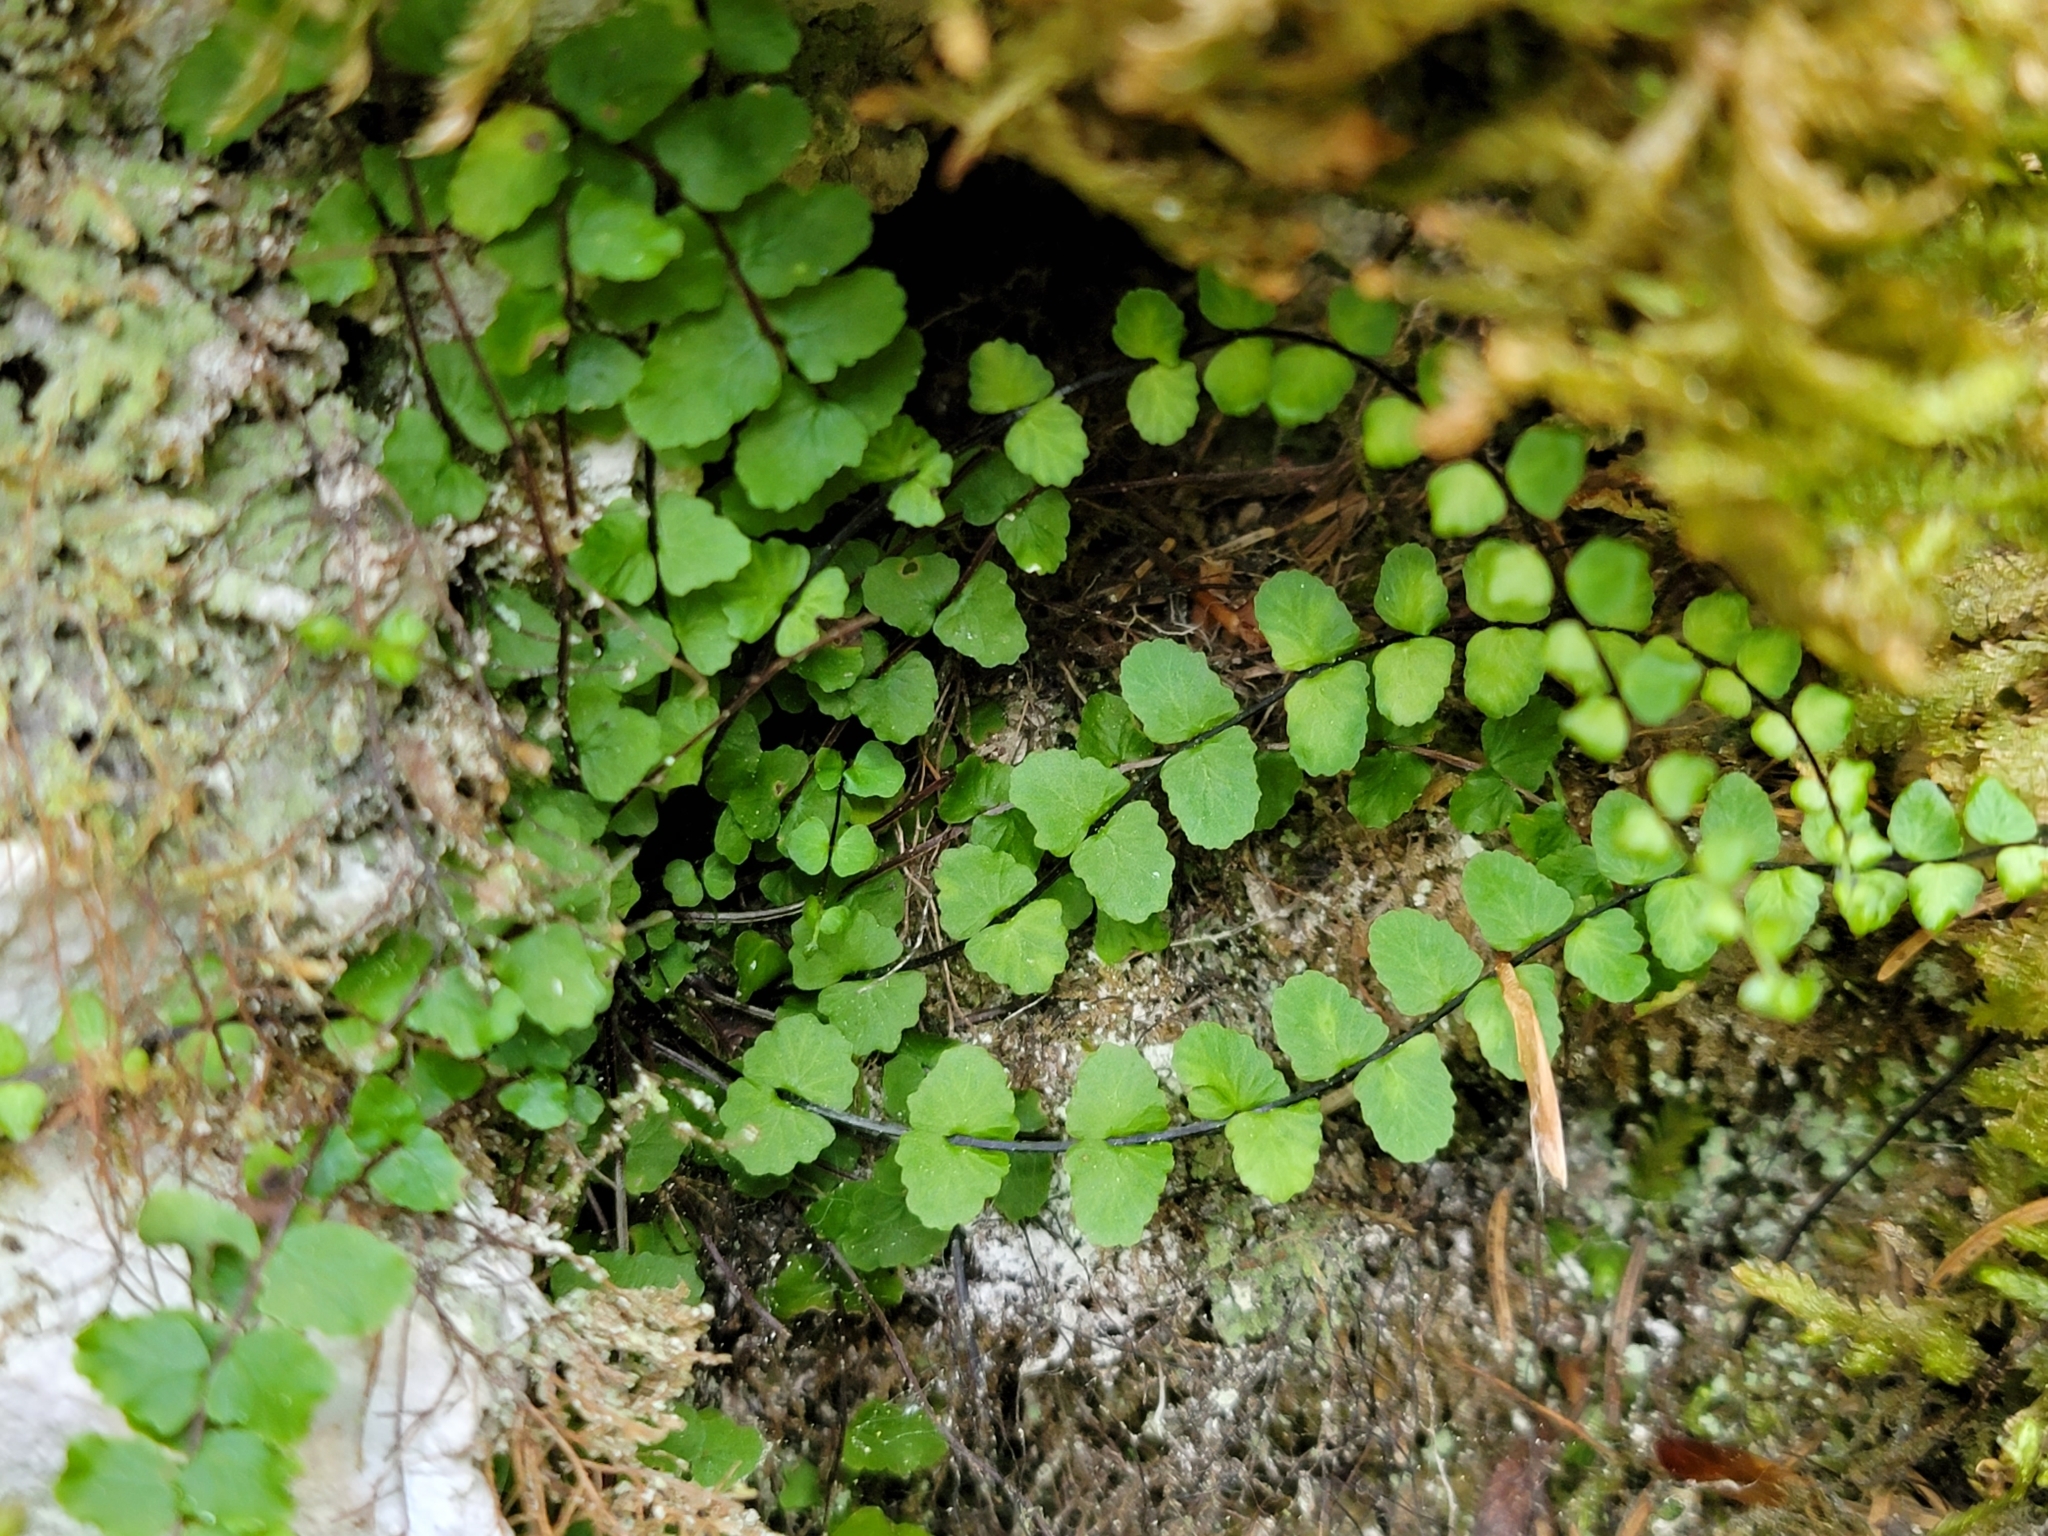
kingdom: Plantae
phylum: Tracheophyta
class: Polypodiopsida
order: Polypodiales
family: Aspleniaceae
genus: Asplenium
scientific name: Asplenium trichomanes
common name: Maidenhair spleenwort
